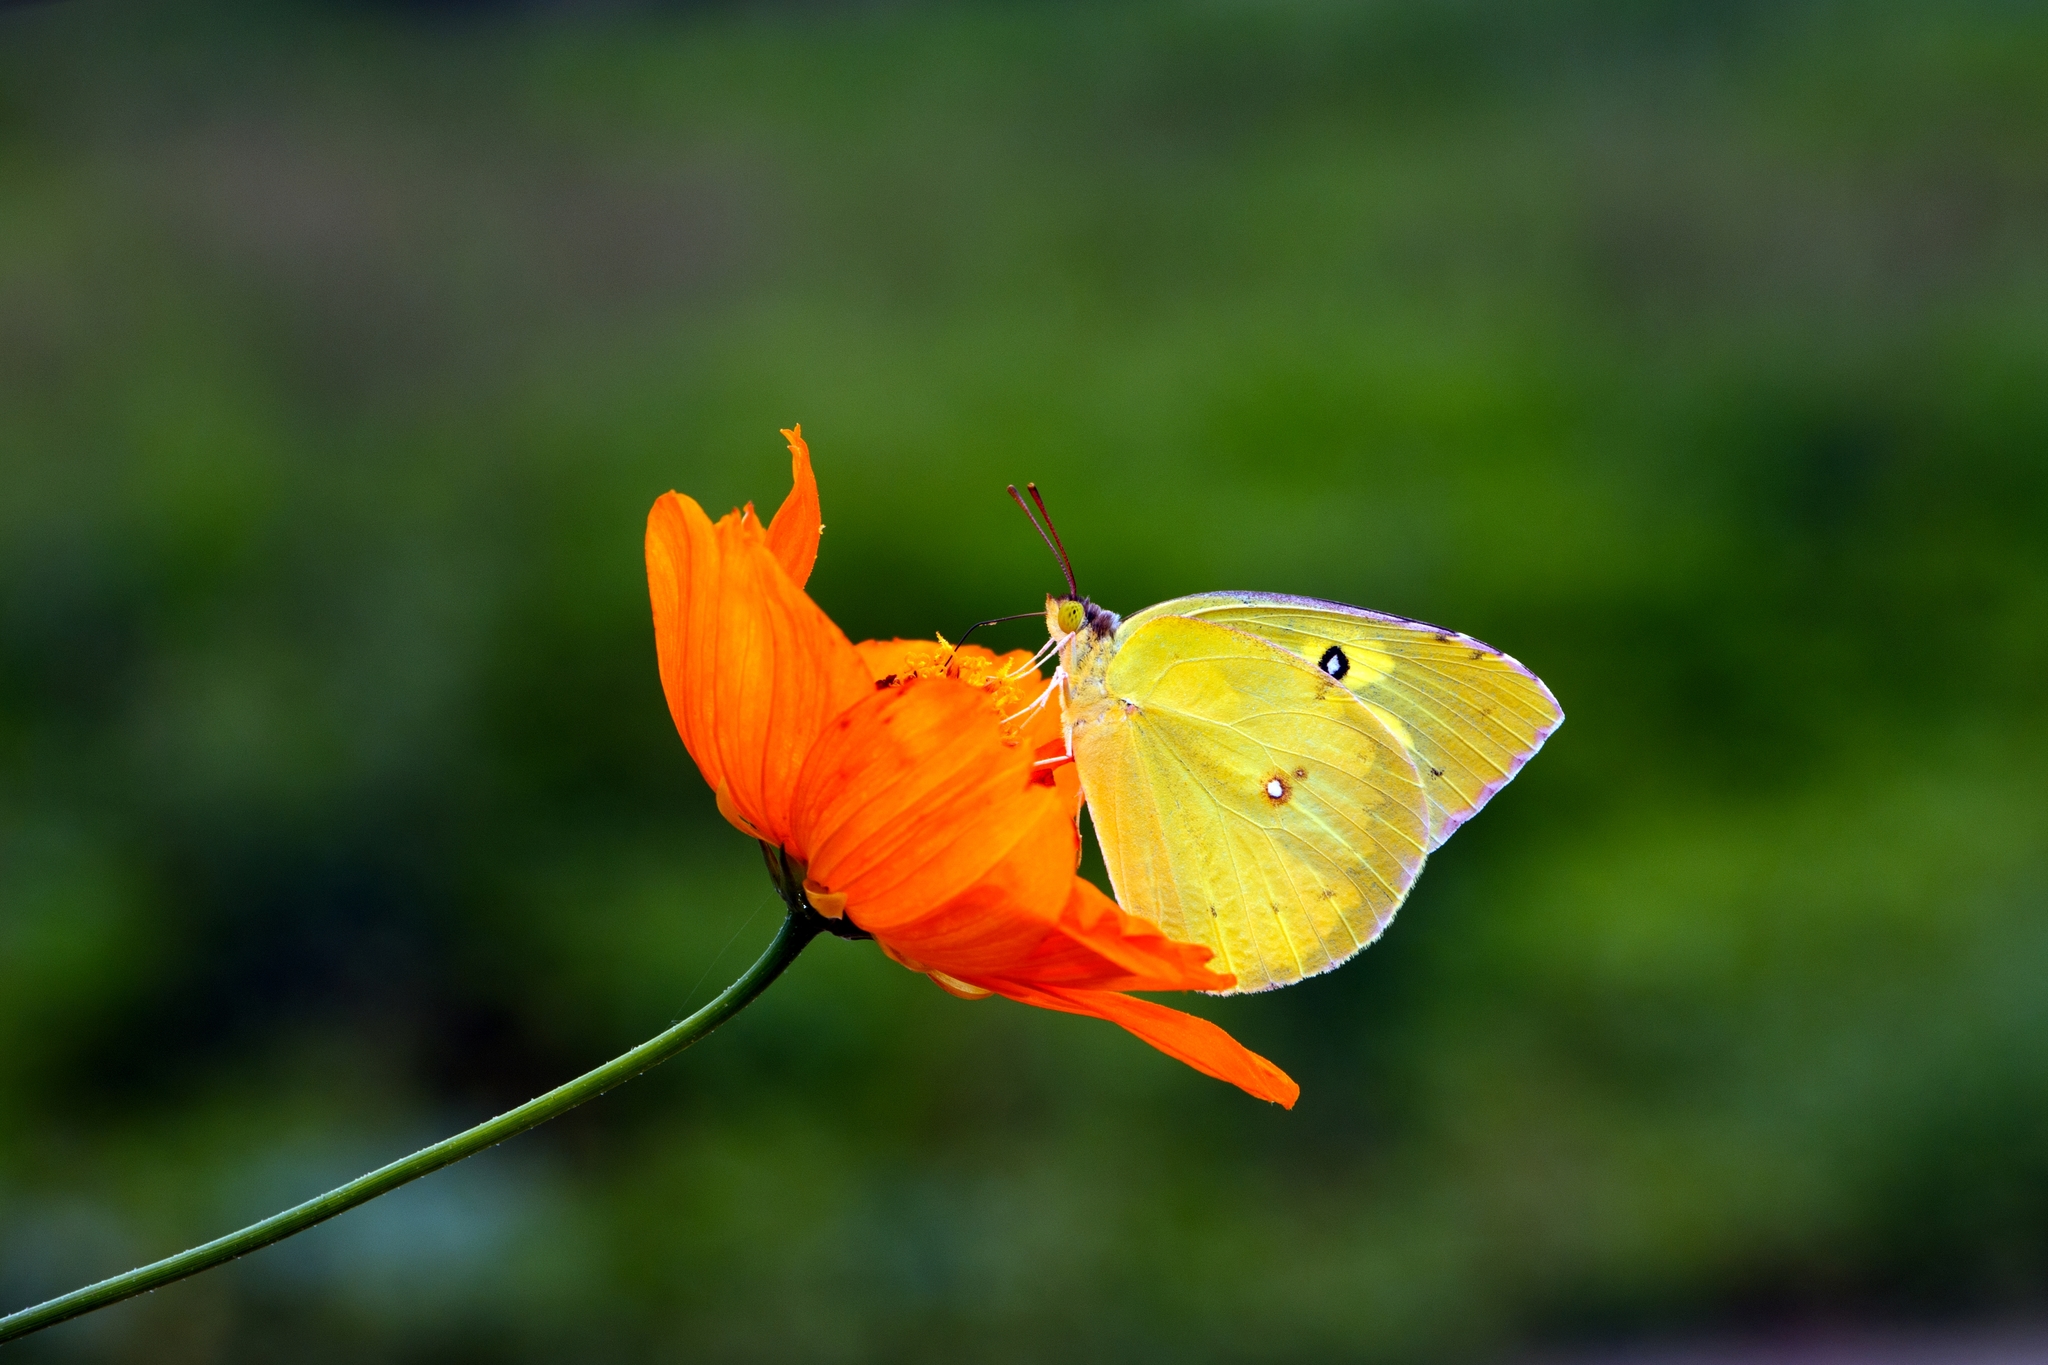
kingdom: Animalia
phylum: Arthropoda
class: Insecta
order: Lepidoptera
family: Pieridae
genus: Zerene
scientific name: Zerene cesonia
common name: Southern dogface
